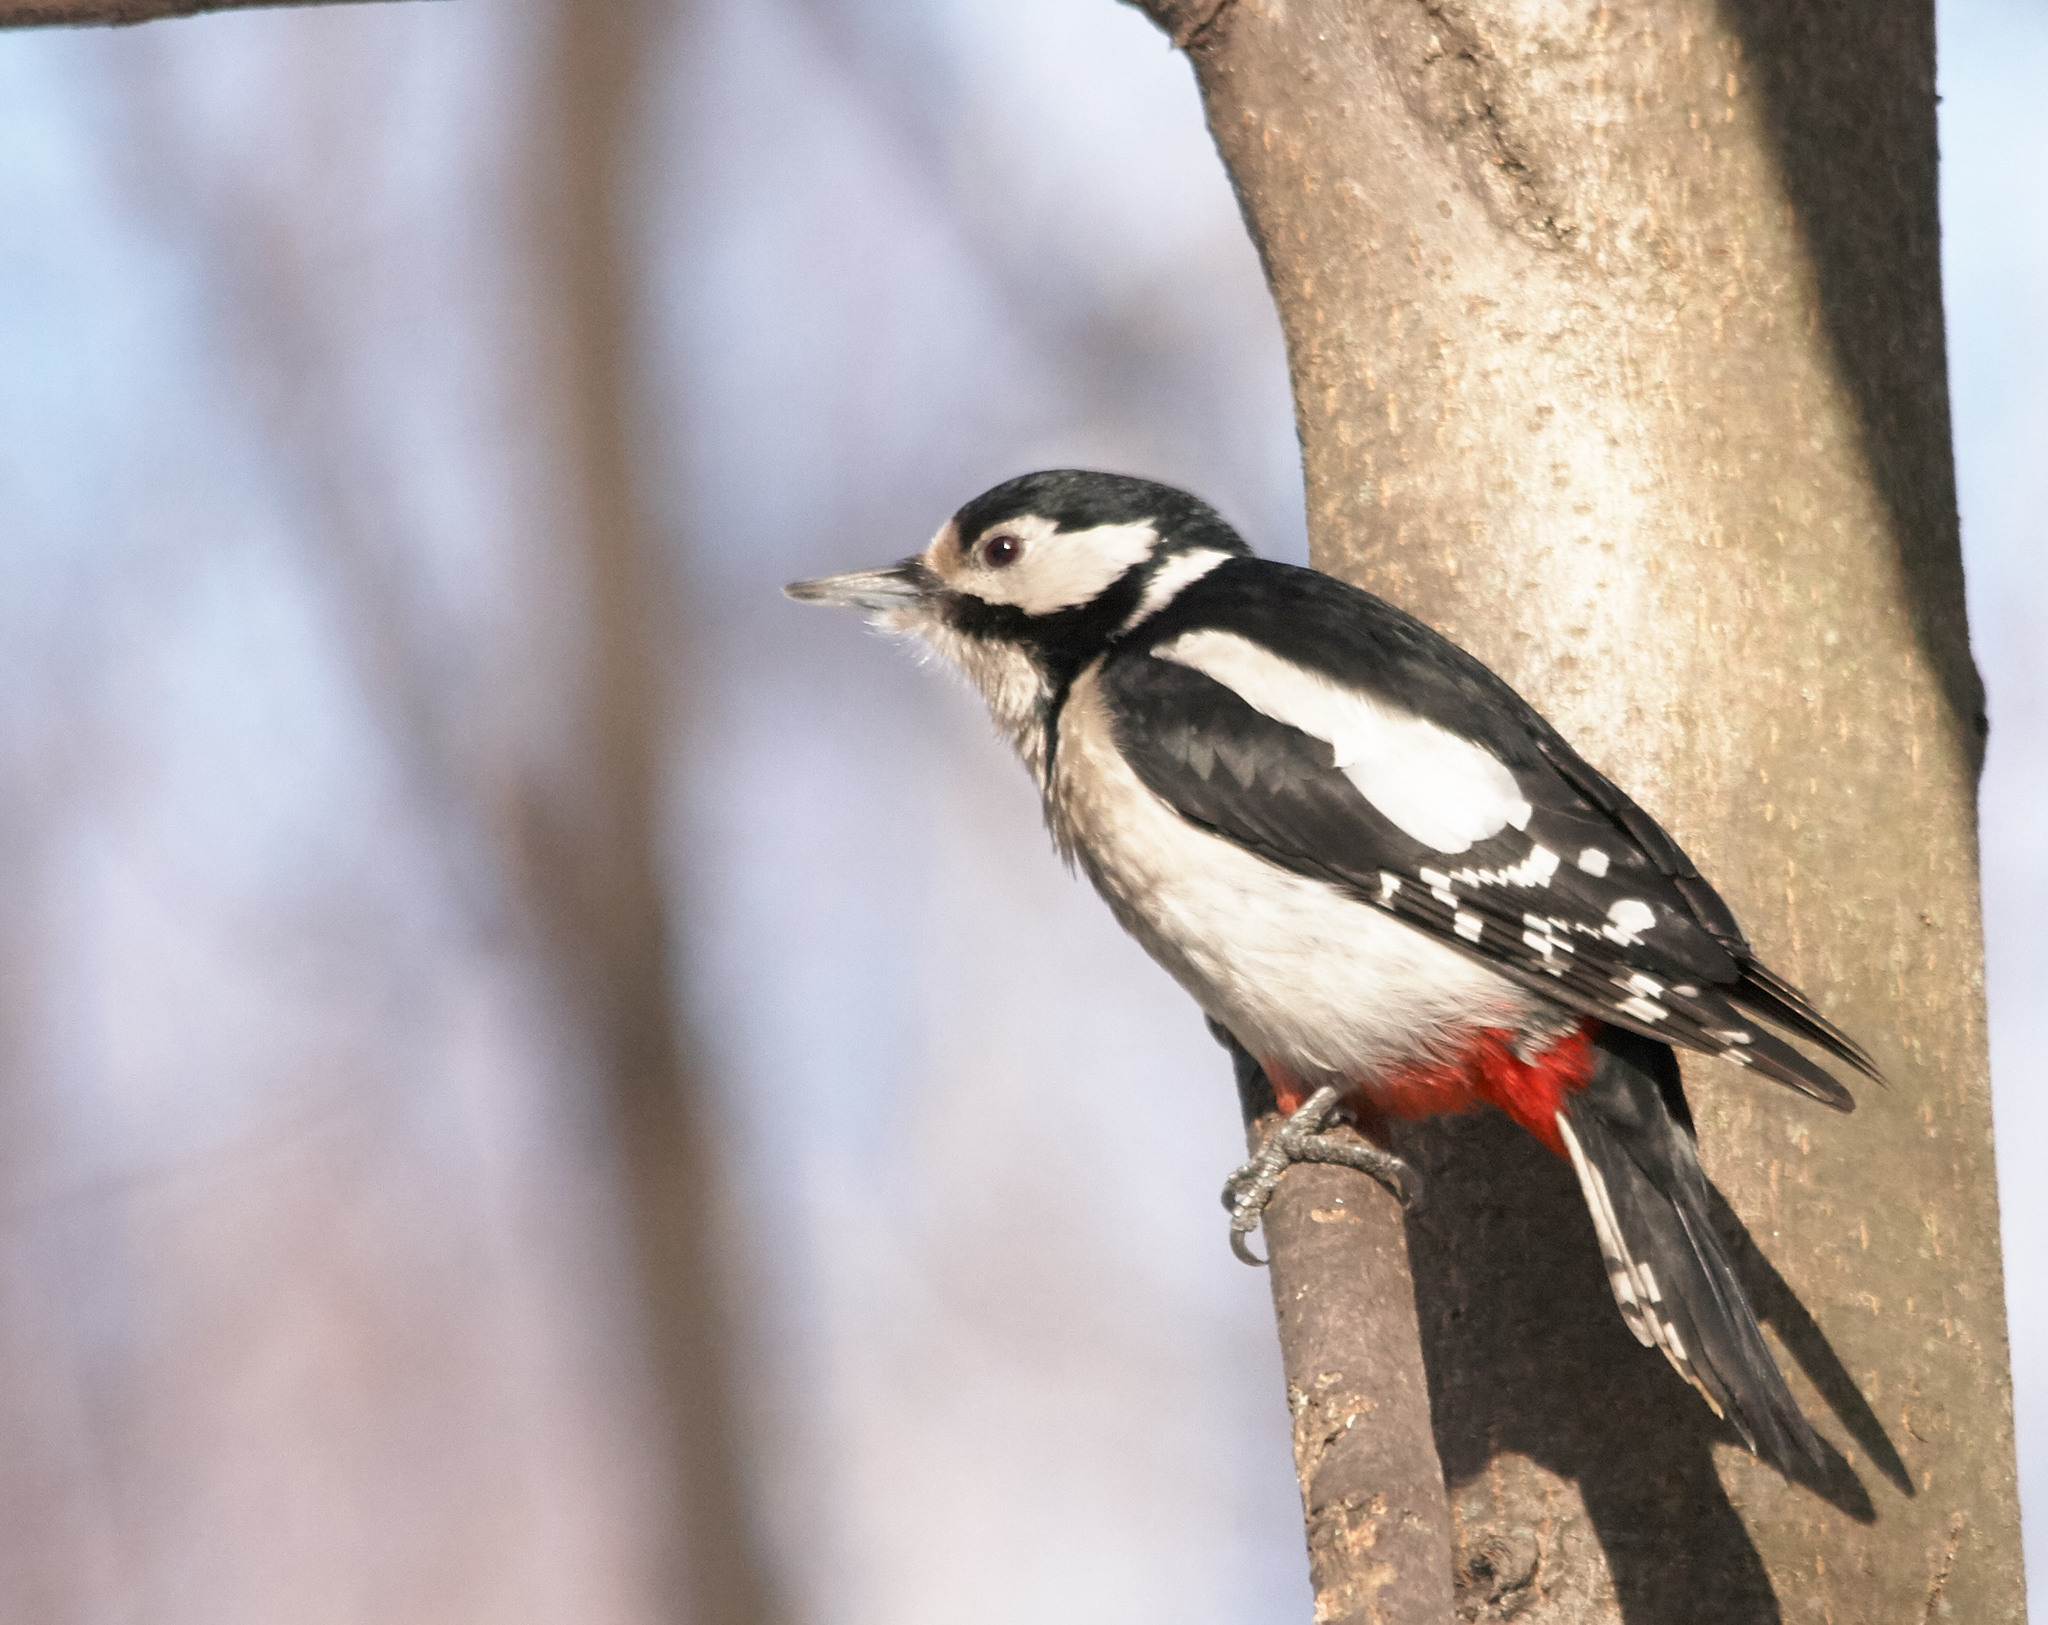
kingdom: Animalia
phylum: Chordata
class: Aves
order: Piciformes
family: Picidae
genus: Dendrocopos
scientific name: Dendrocopos major
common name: Great spotted woodpecker
